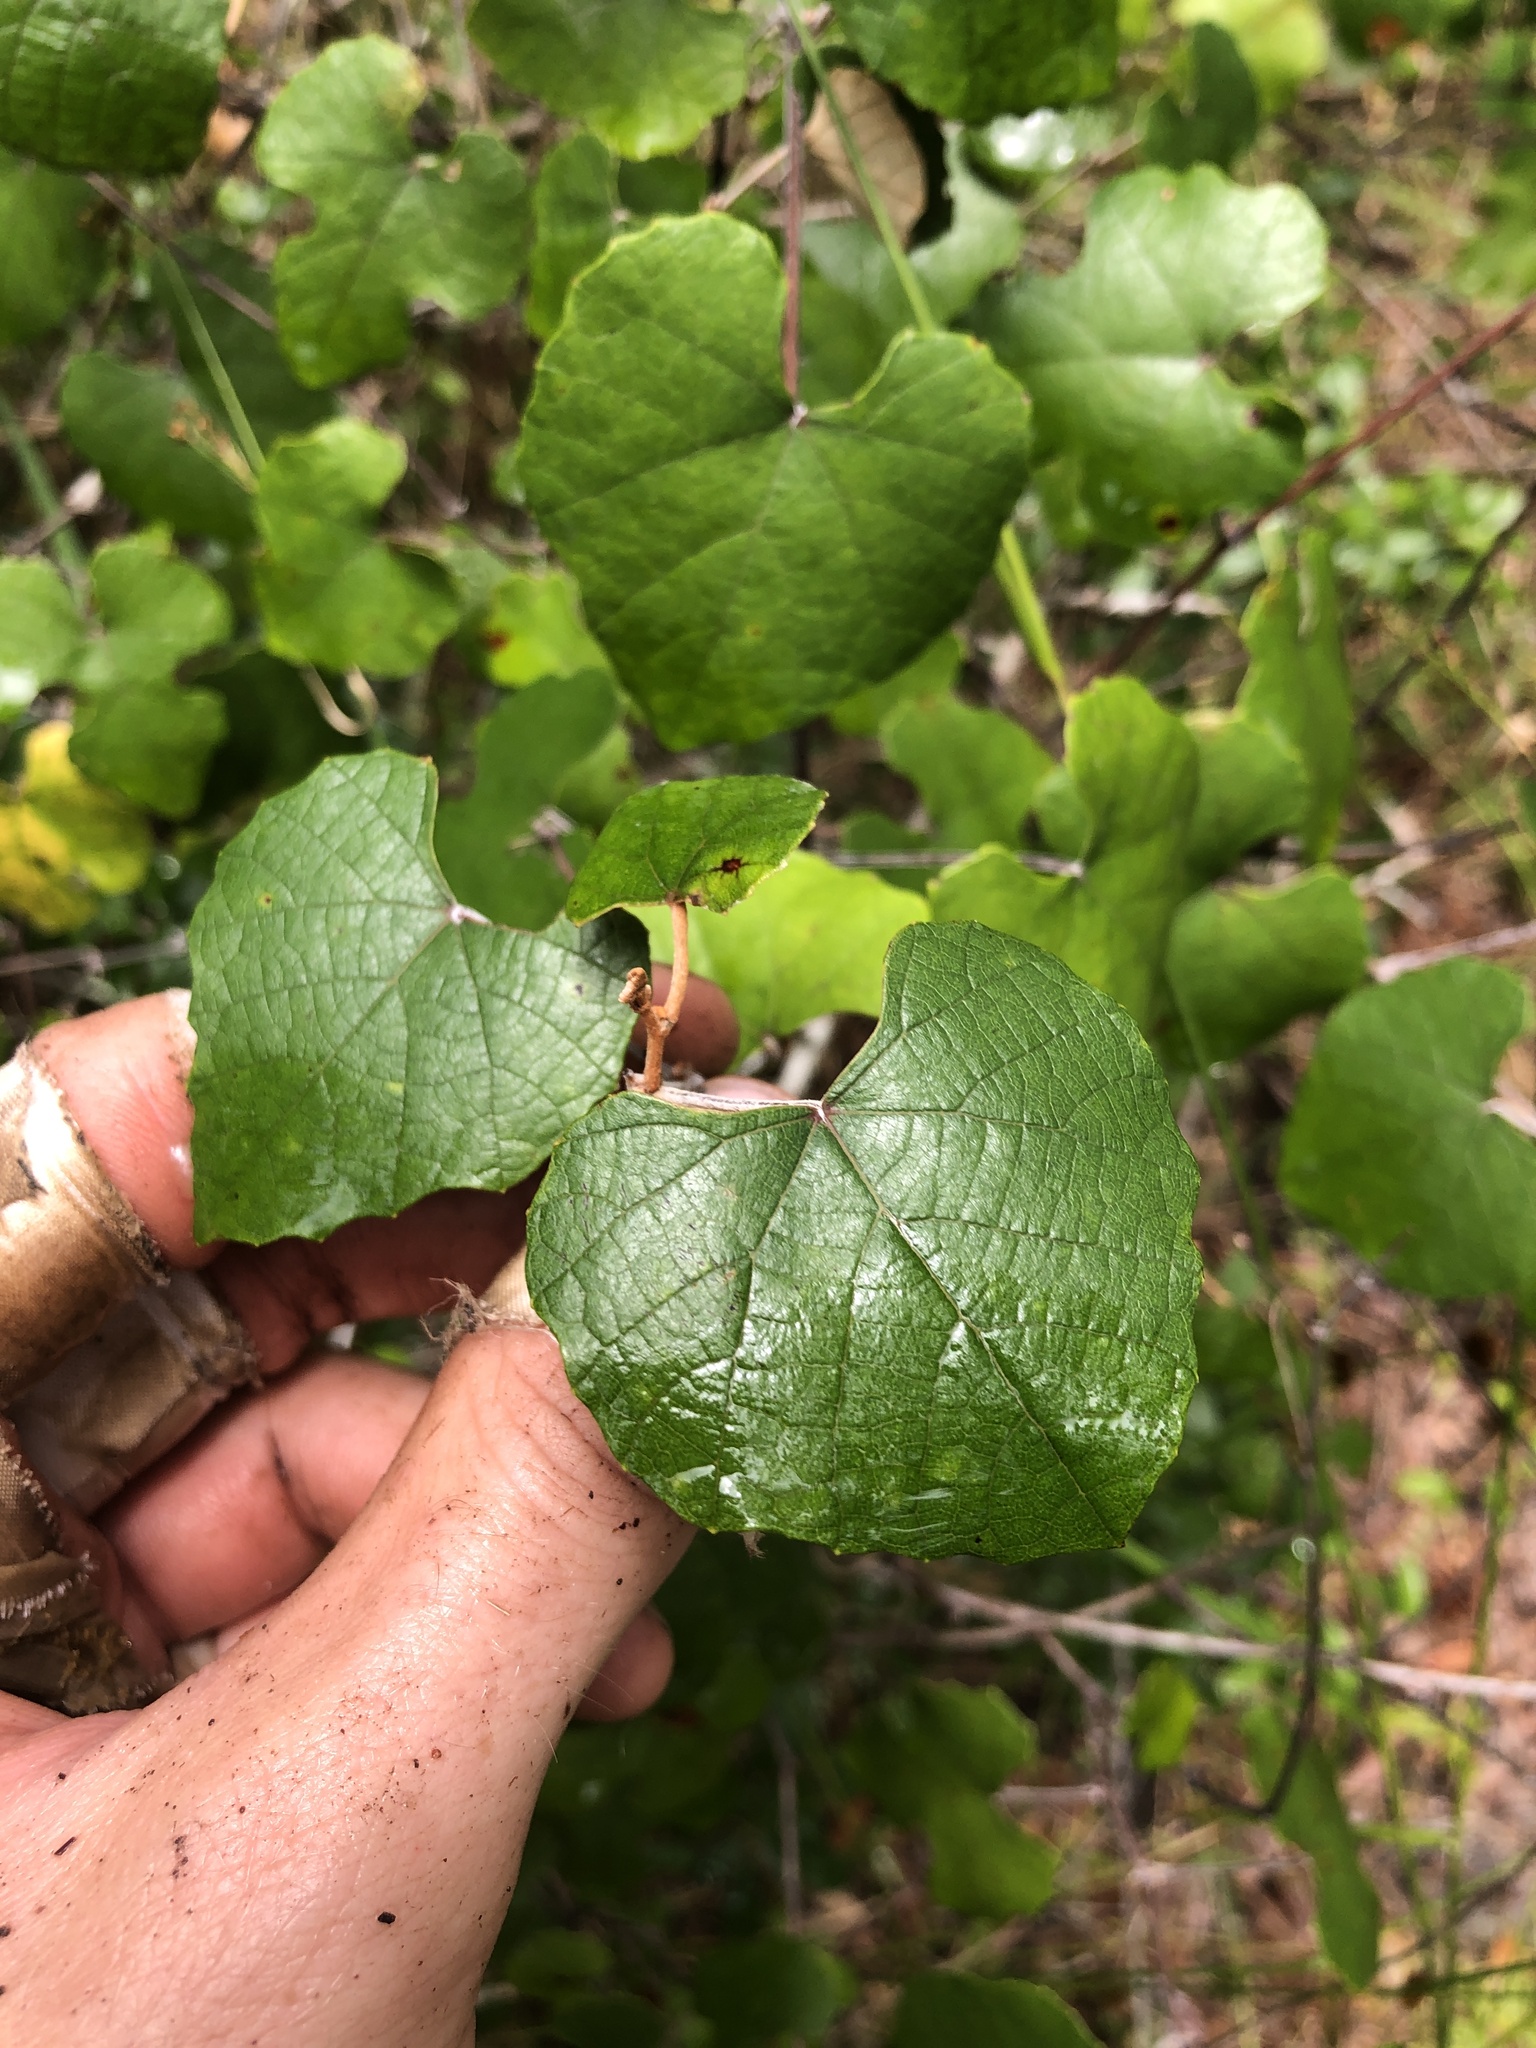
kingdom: Plantae
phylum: Tracheophyta
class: Magnoliopsida
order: Vitales
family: Vitaceae
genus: Vitis
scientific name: Vitis shuttleworthii
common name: Caloosa grape
